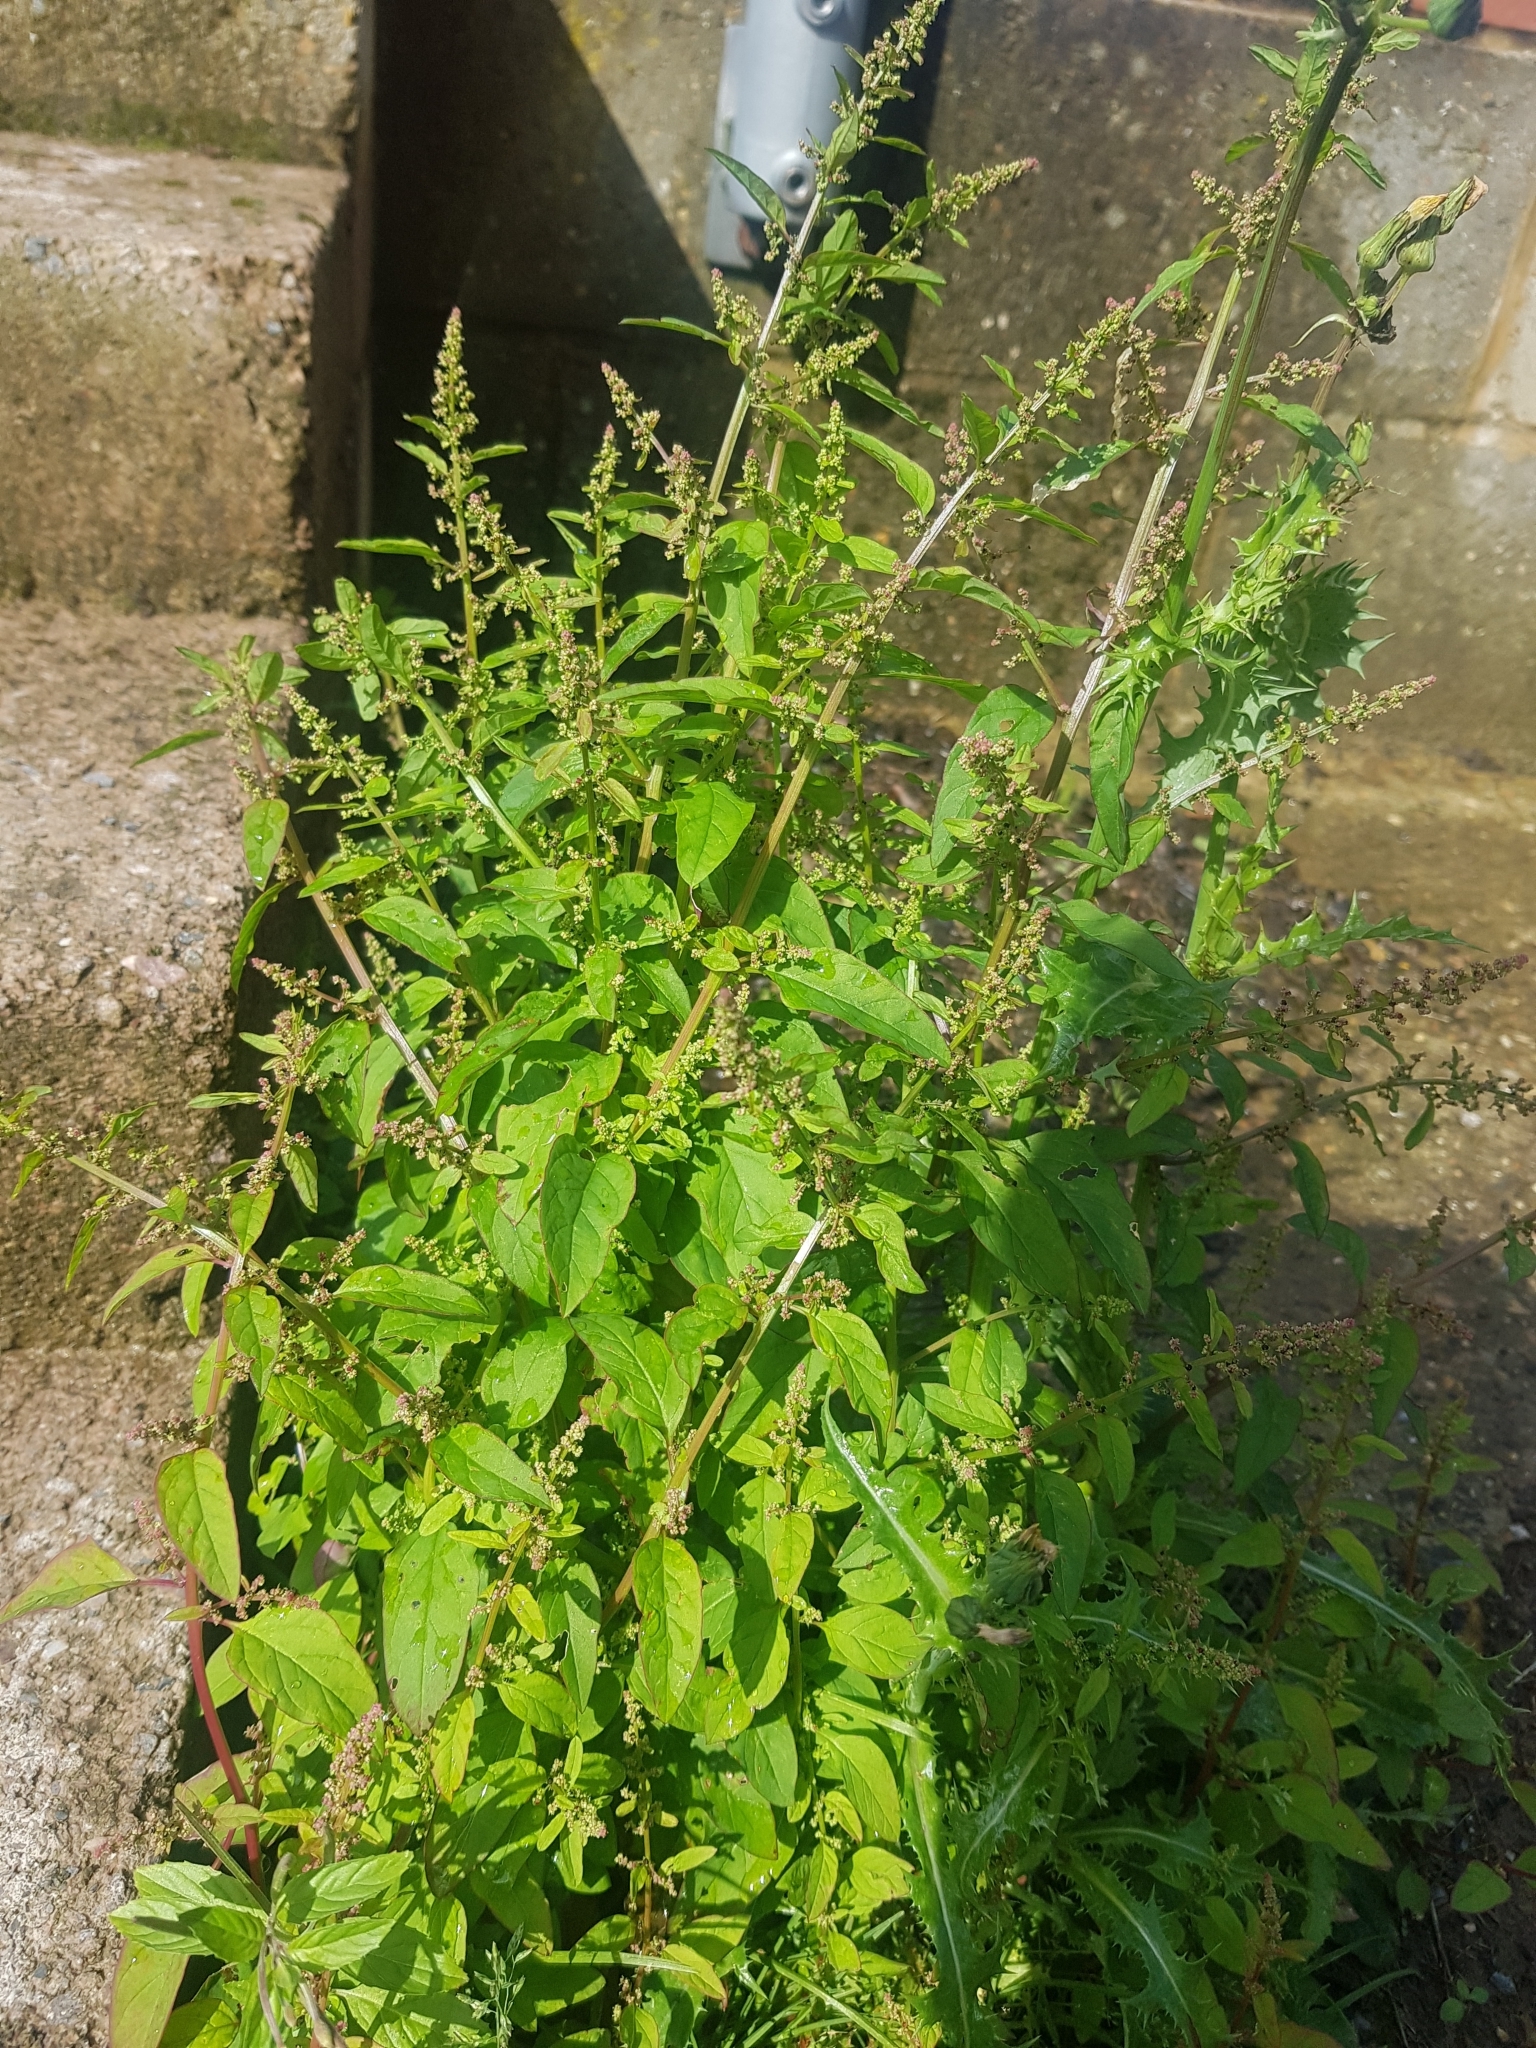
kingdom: Plantae
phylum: Tracheophyta
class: Magnoliopsida
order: Caryophyllales
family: Amaranthaceae
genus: Lipandra
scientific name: Lipandra polysperma
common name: Many-seed goosefoot
